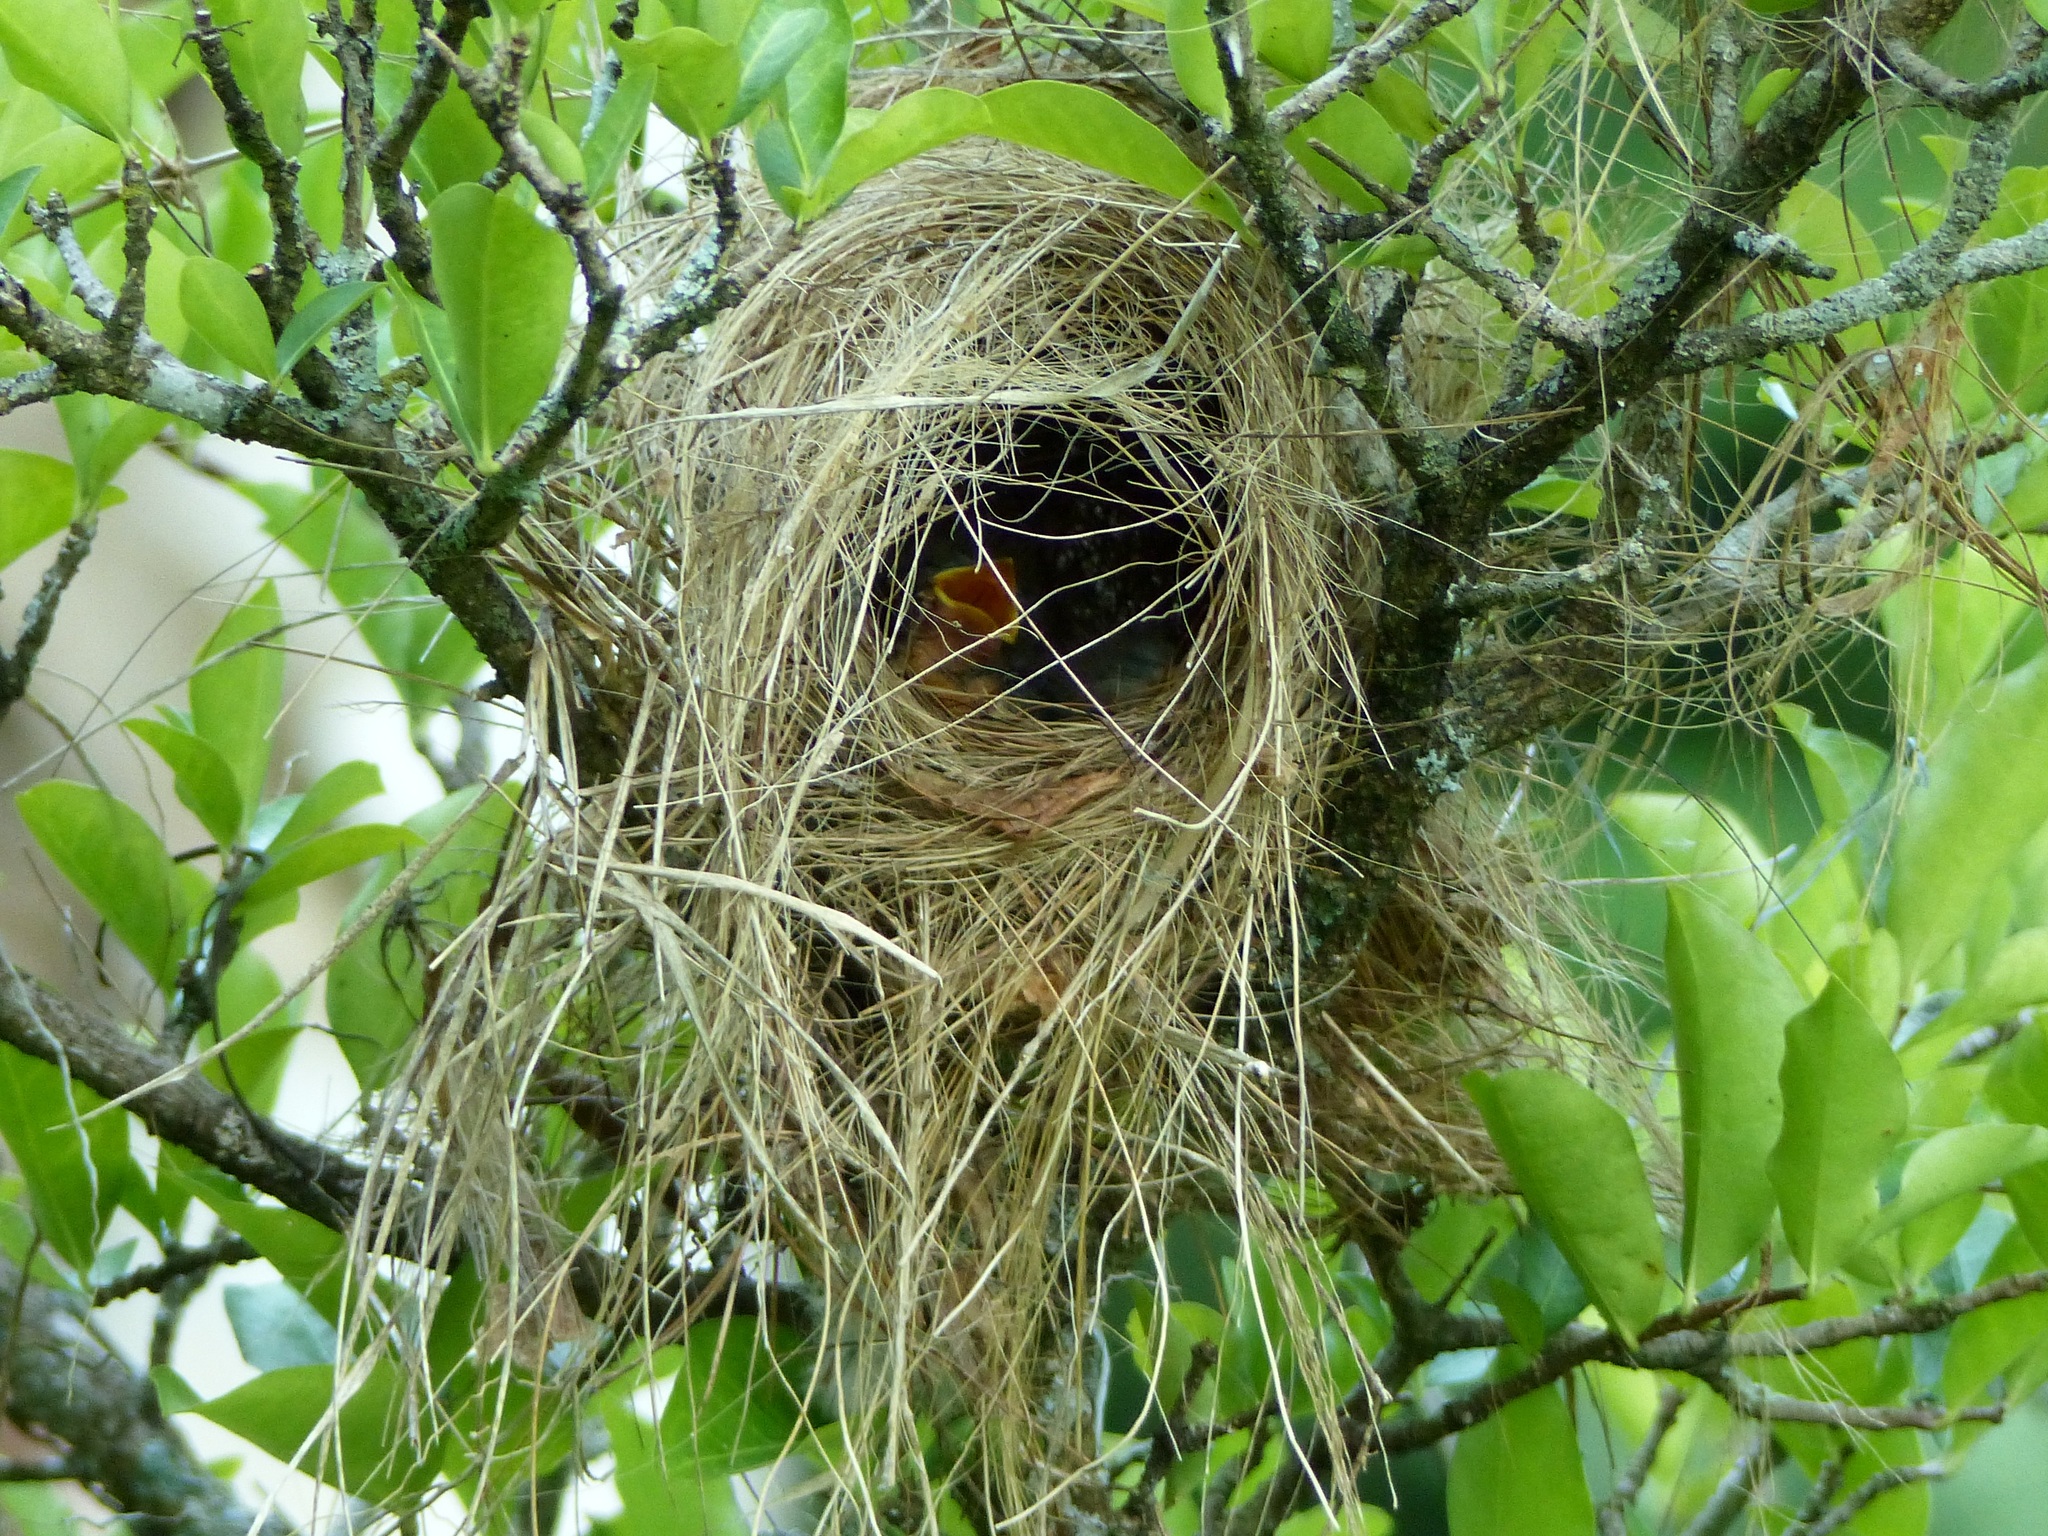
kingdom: Animalia
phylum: Chordata
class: Aves
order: Passeriformes
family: Tyrannidae
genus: Myiozetetes
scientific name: Myiozetetes similis
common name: Social flycatcher
